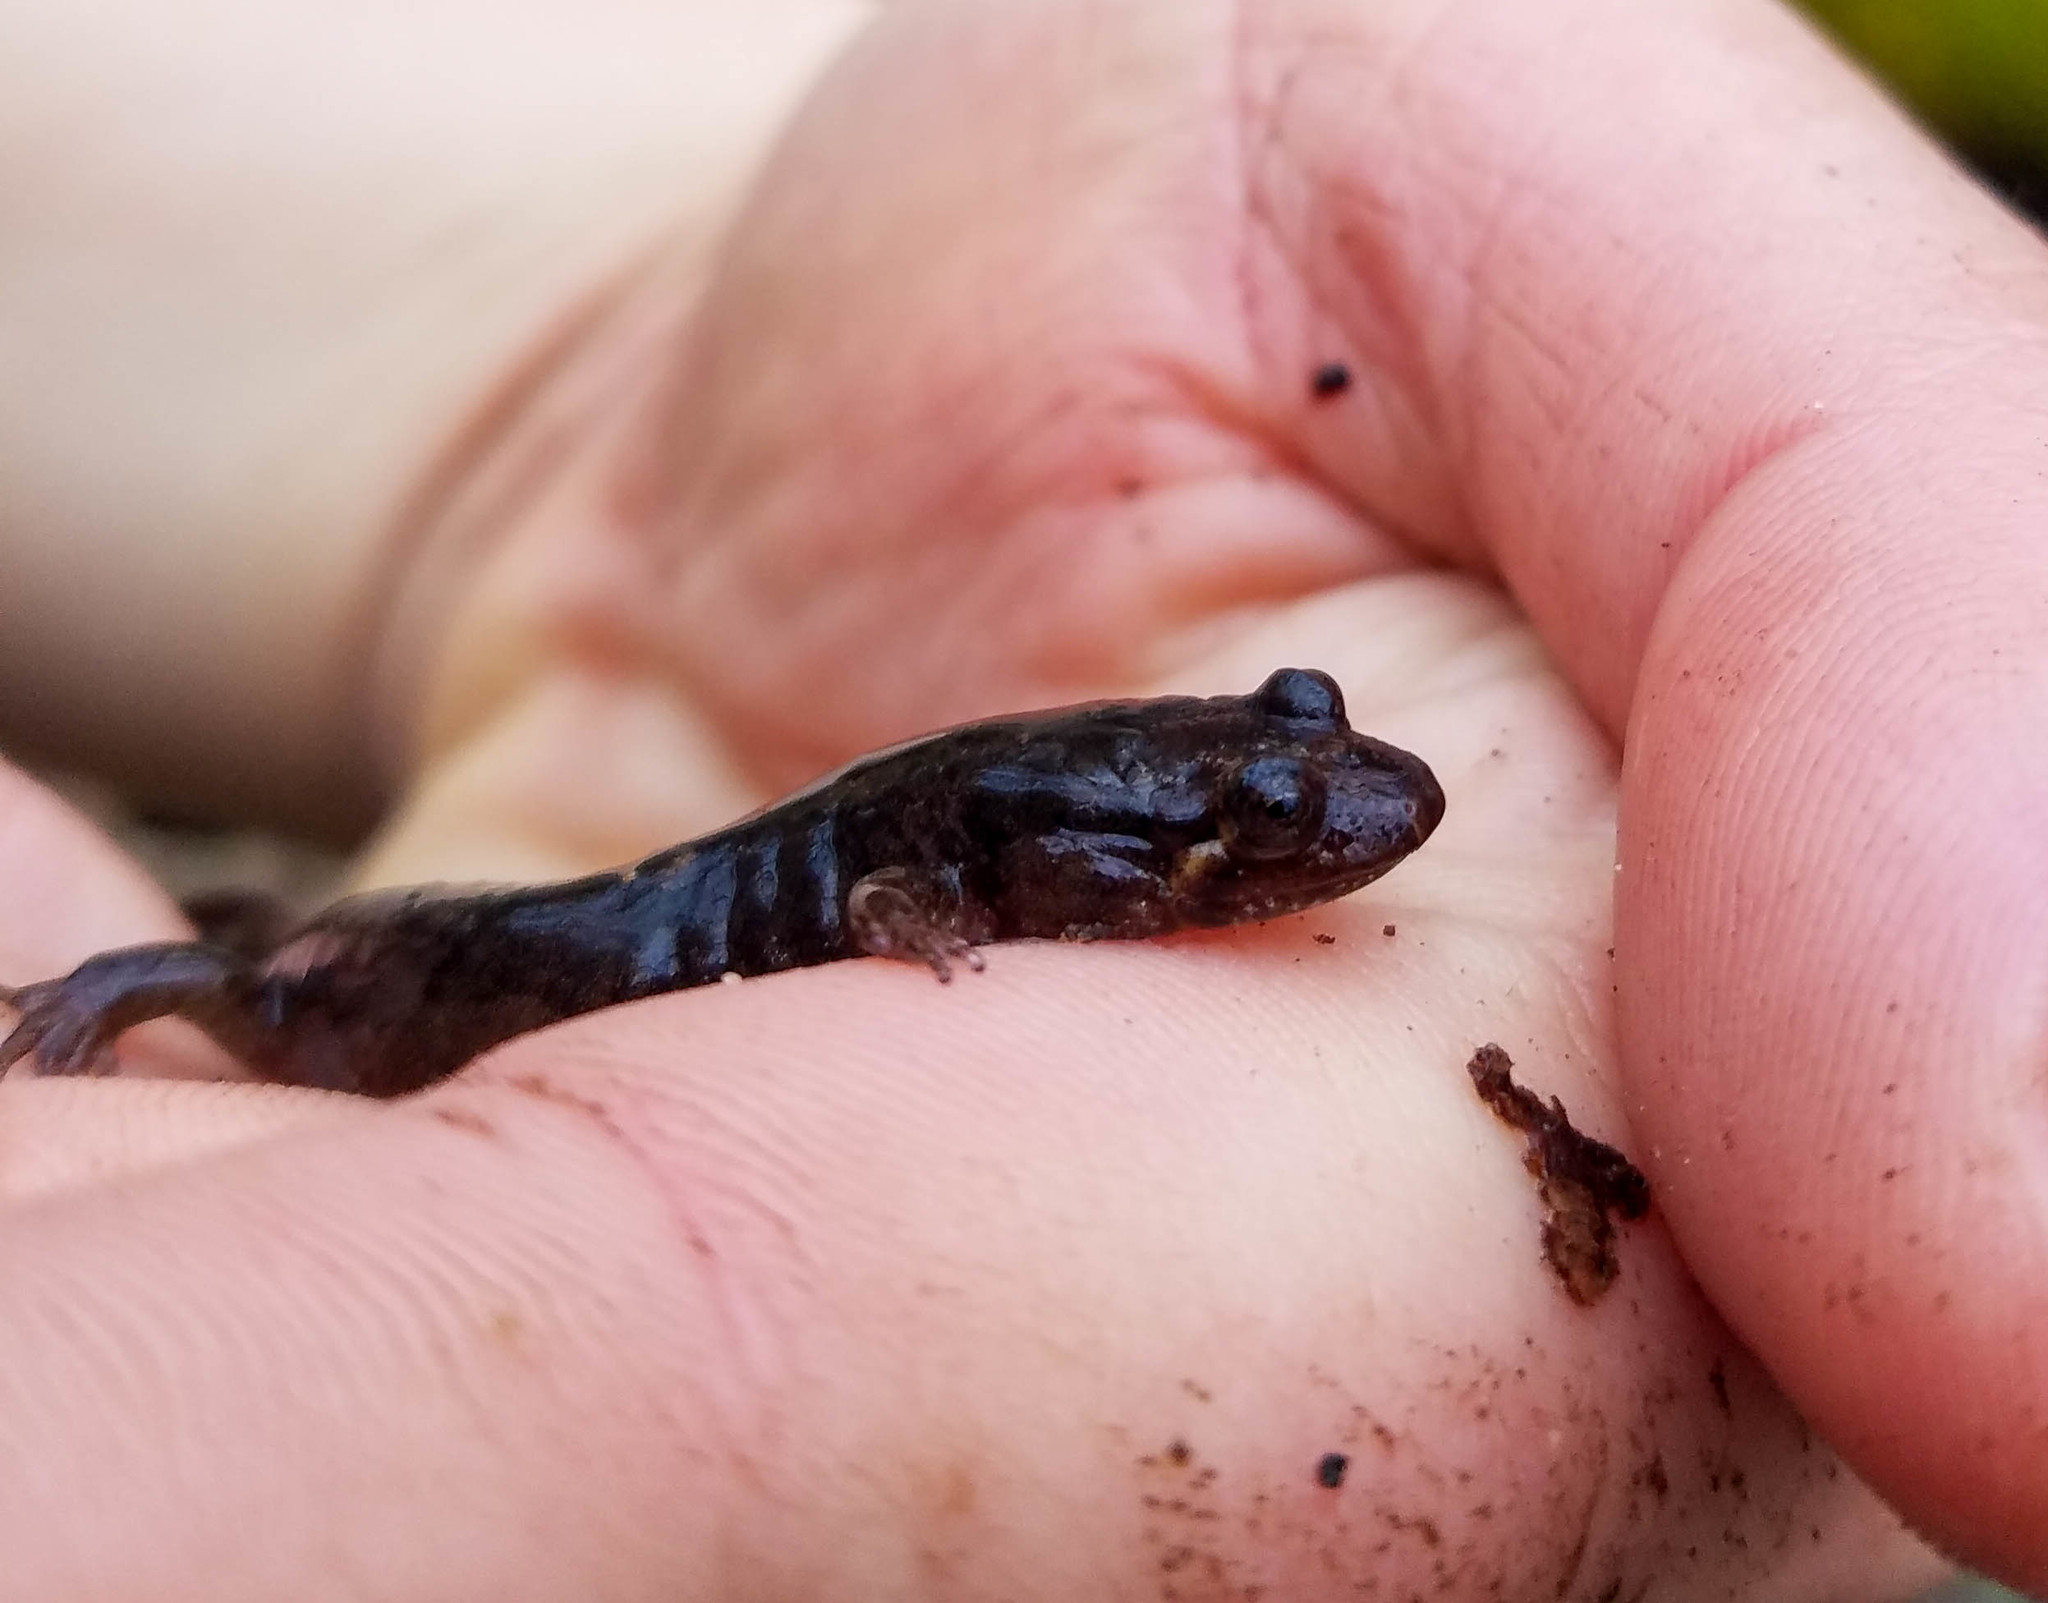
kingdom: Animalia
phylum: Chordata
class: Amphibia
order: Caudata
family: Plethodontidae
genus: Desmognathus
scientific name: Desmognathus monticola
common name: Seal salamander
